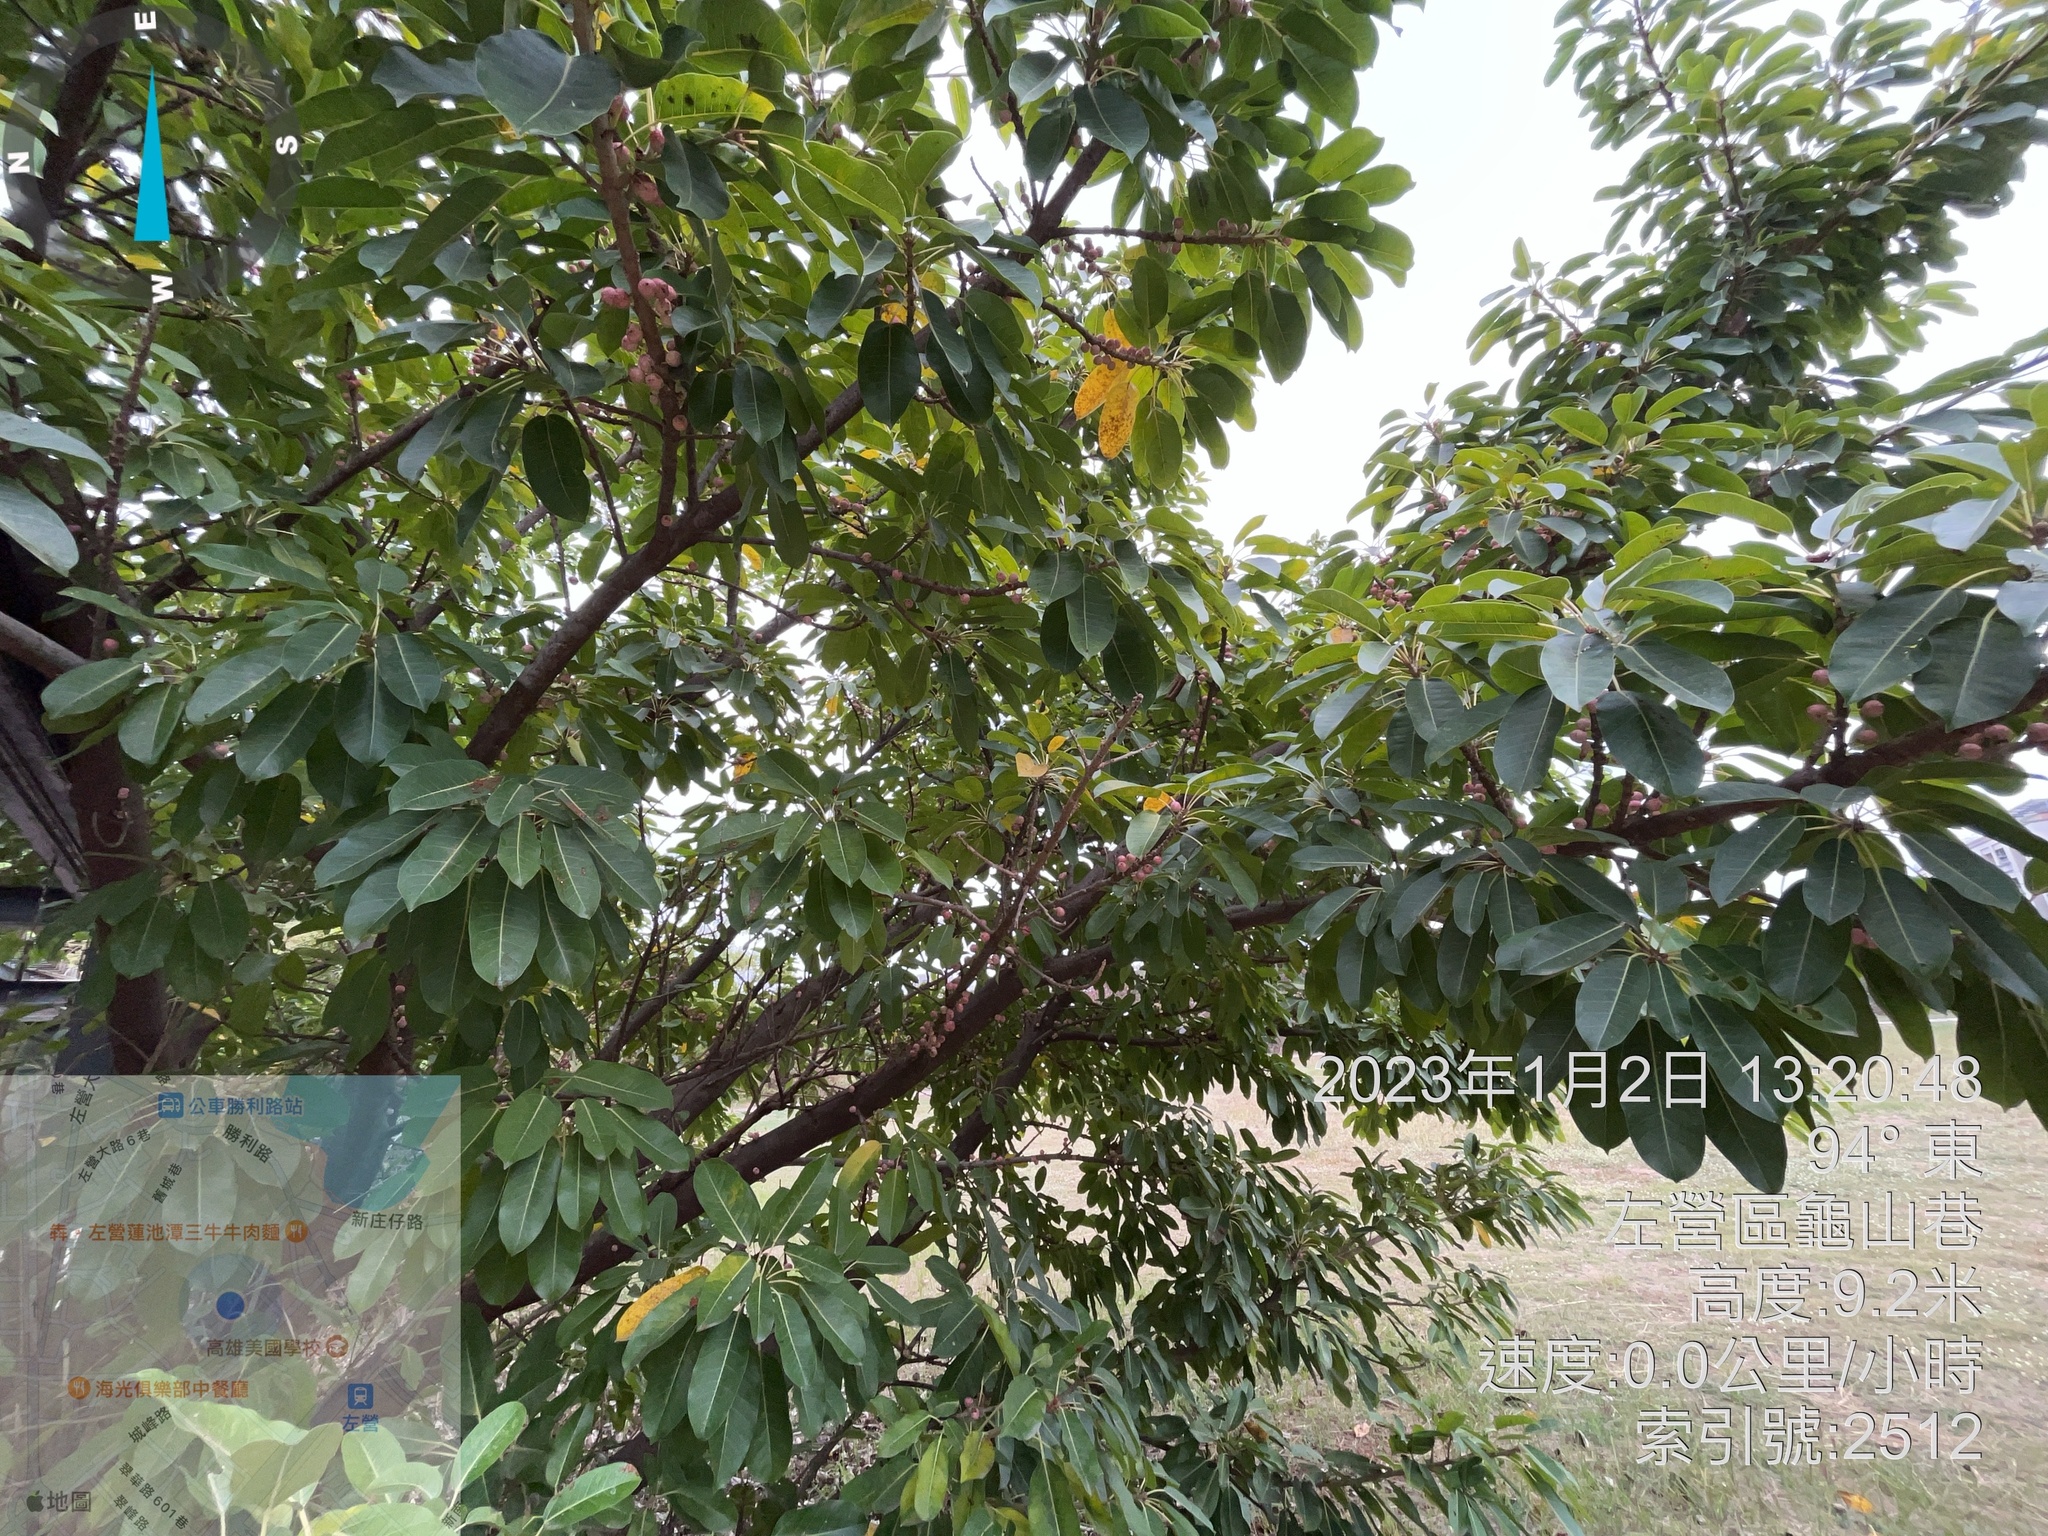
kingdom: Plantae
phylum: Tracheophyta
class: Magnoliopsida
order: Rosales
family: Moraceae
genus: Ficus
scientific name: Ficus subpisocarpa
